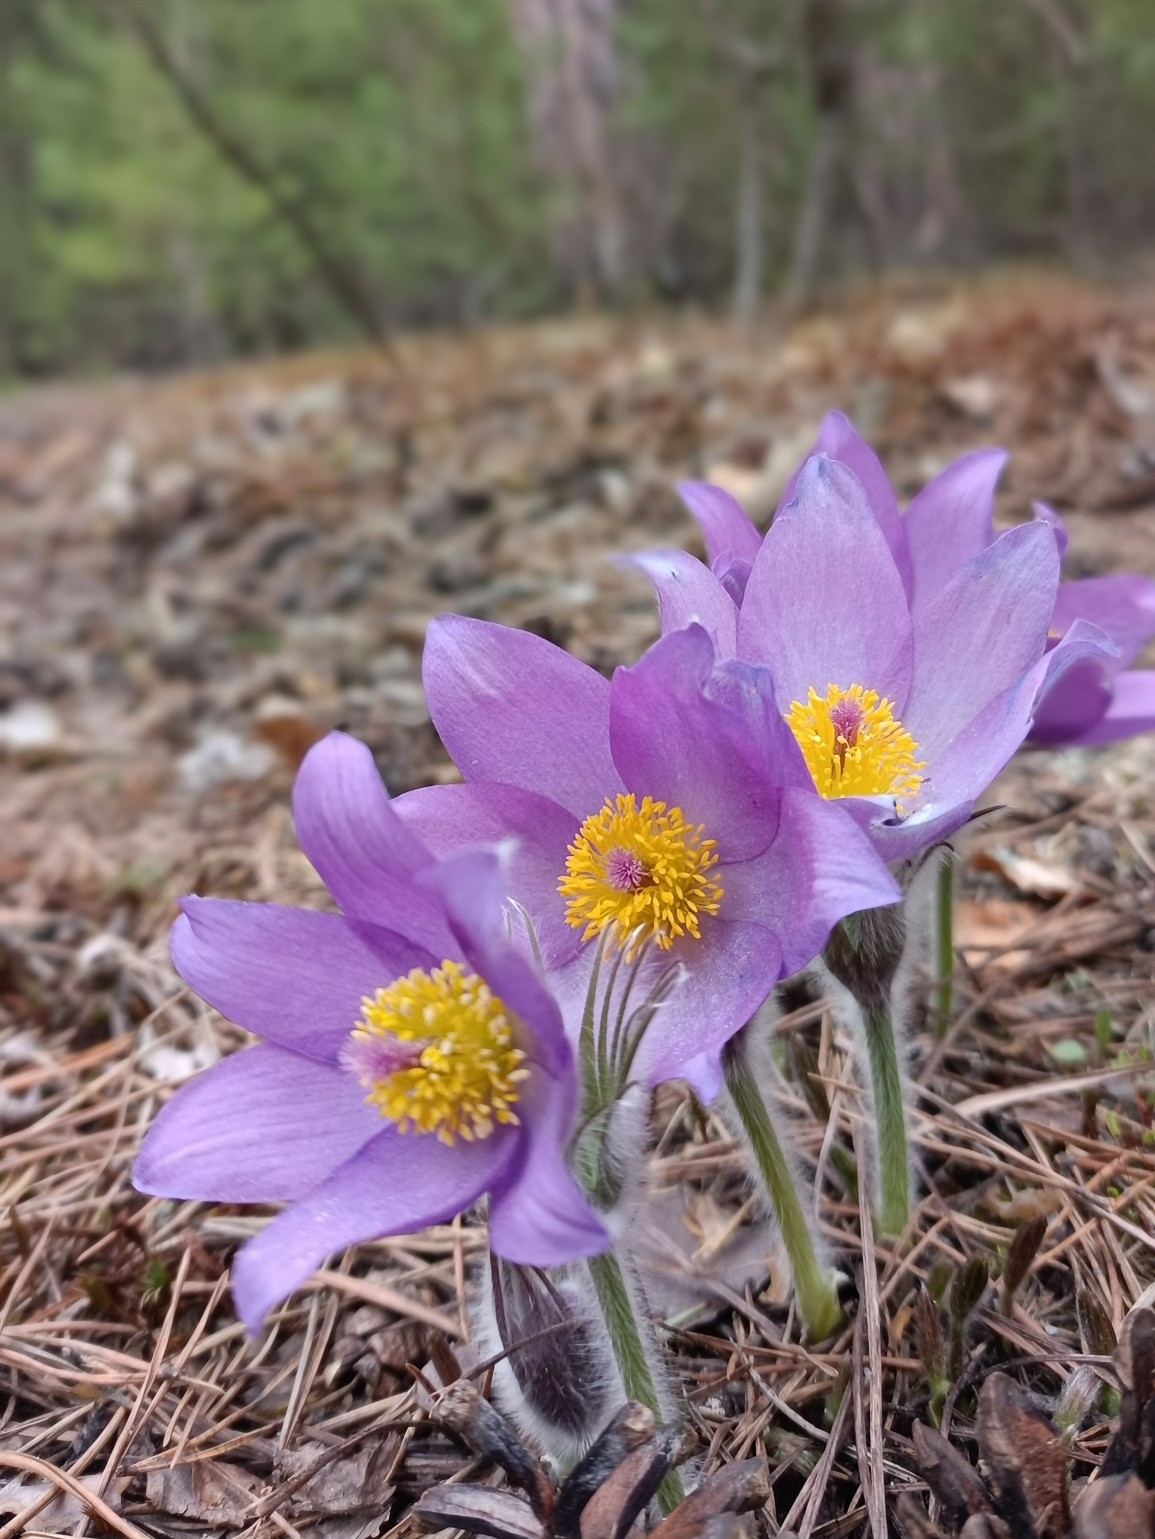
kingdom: Plantae
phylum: Tracheophyta
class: Magnoliopsida
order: Ranunculales
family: Ranunculaceae
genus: Pulsatilla
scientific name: Pulsatilla patens
